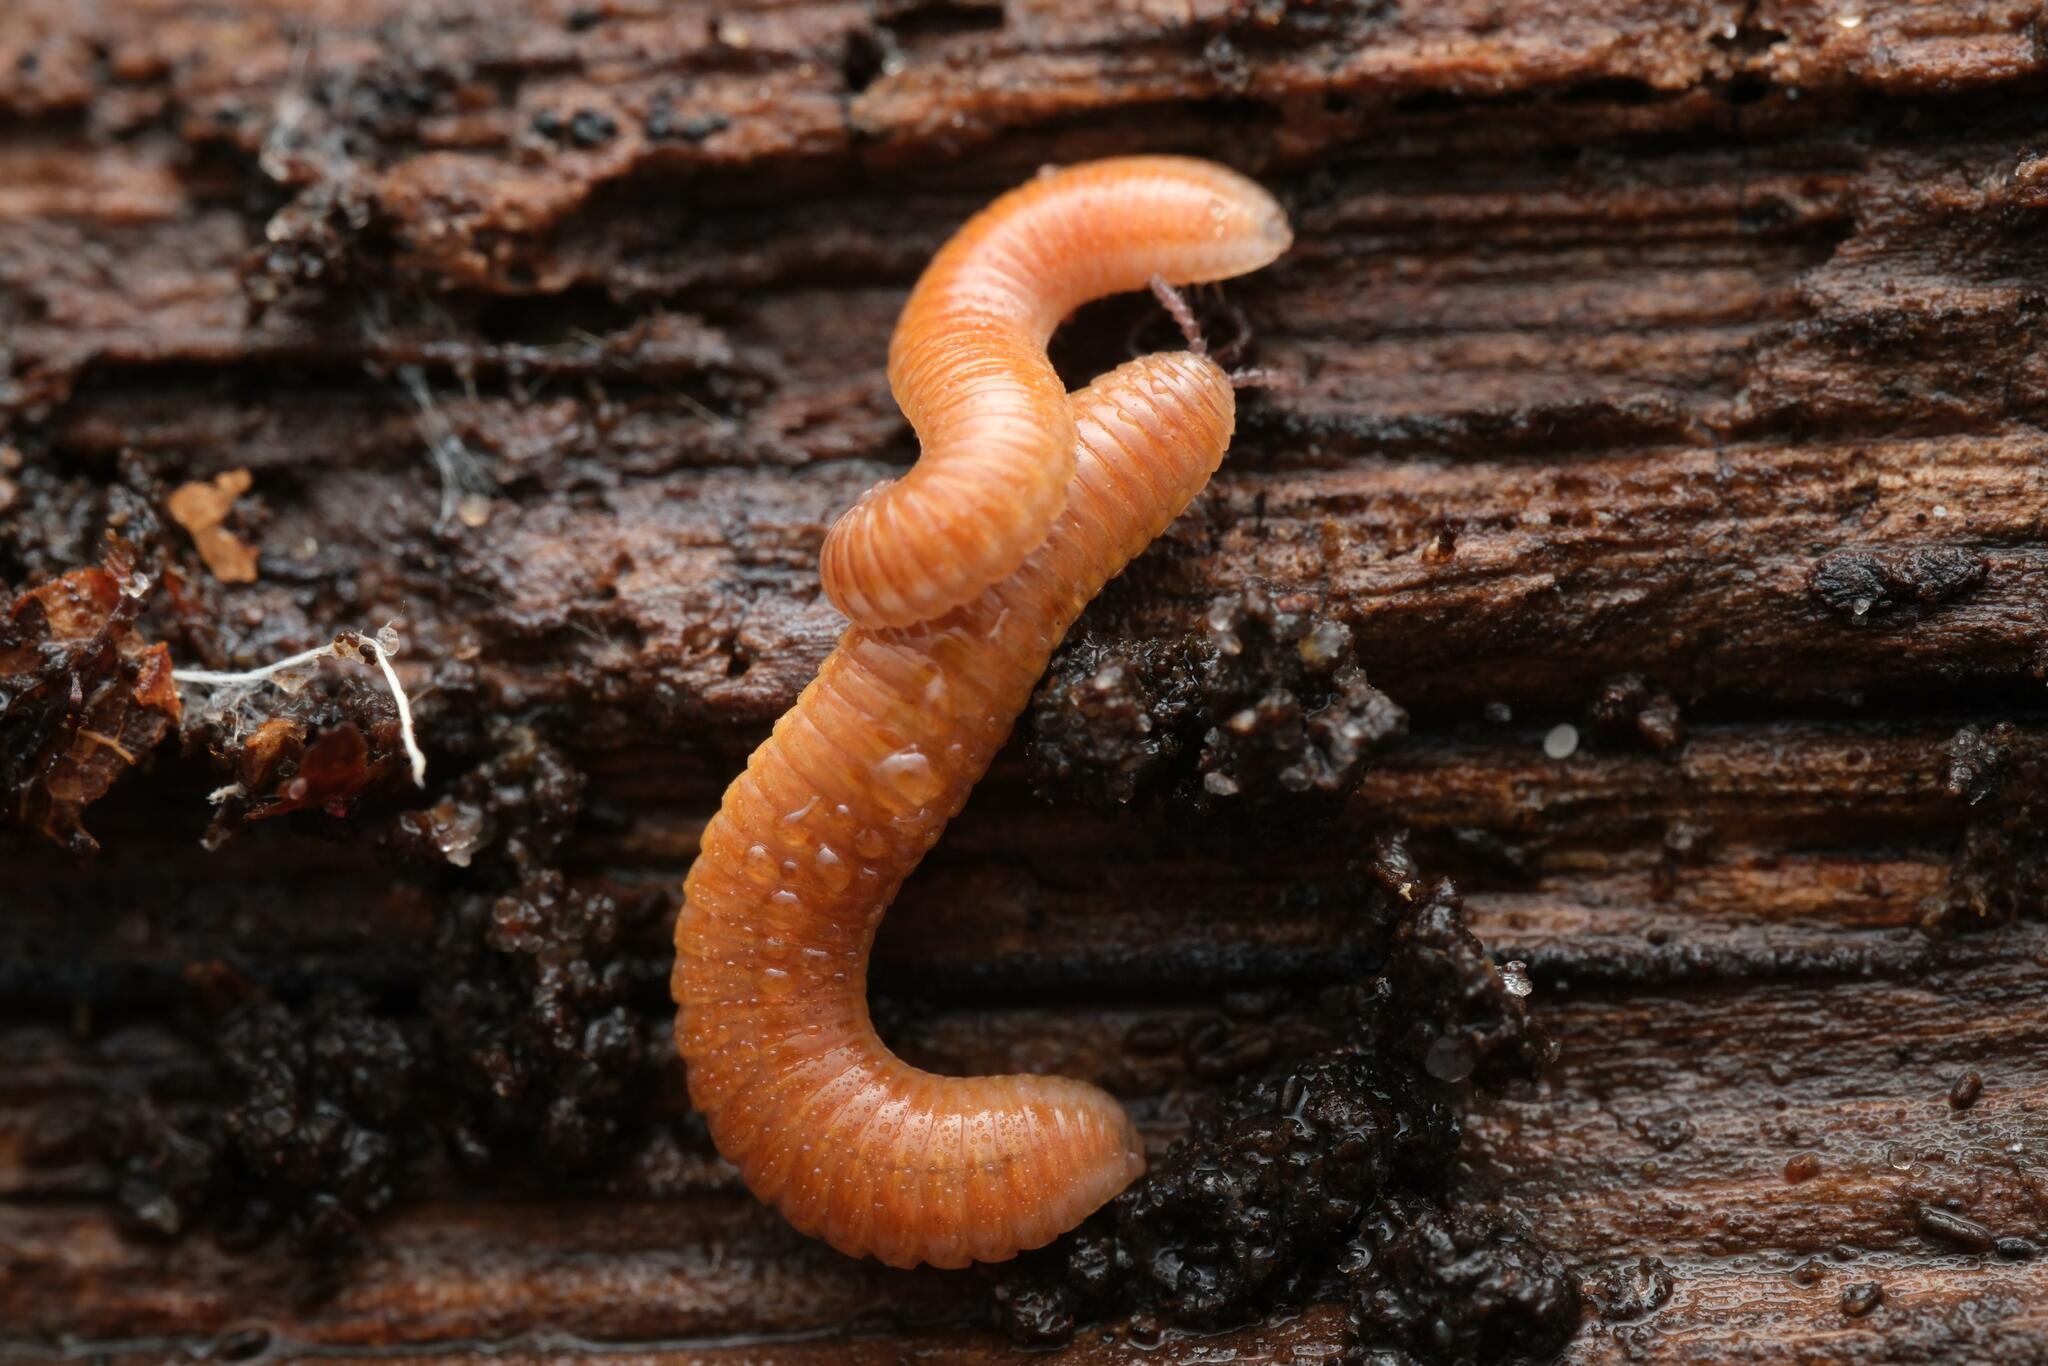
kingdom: Animalia
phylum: Arthropoda
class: Diplopoda
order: Polyzoniida
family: Polyzoniidae
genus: Polyzonium
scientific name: Polyzonium germanicum
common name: Boring millipede
